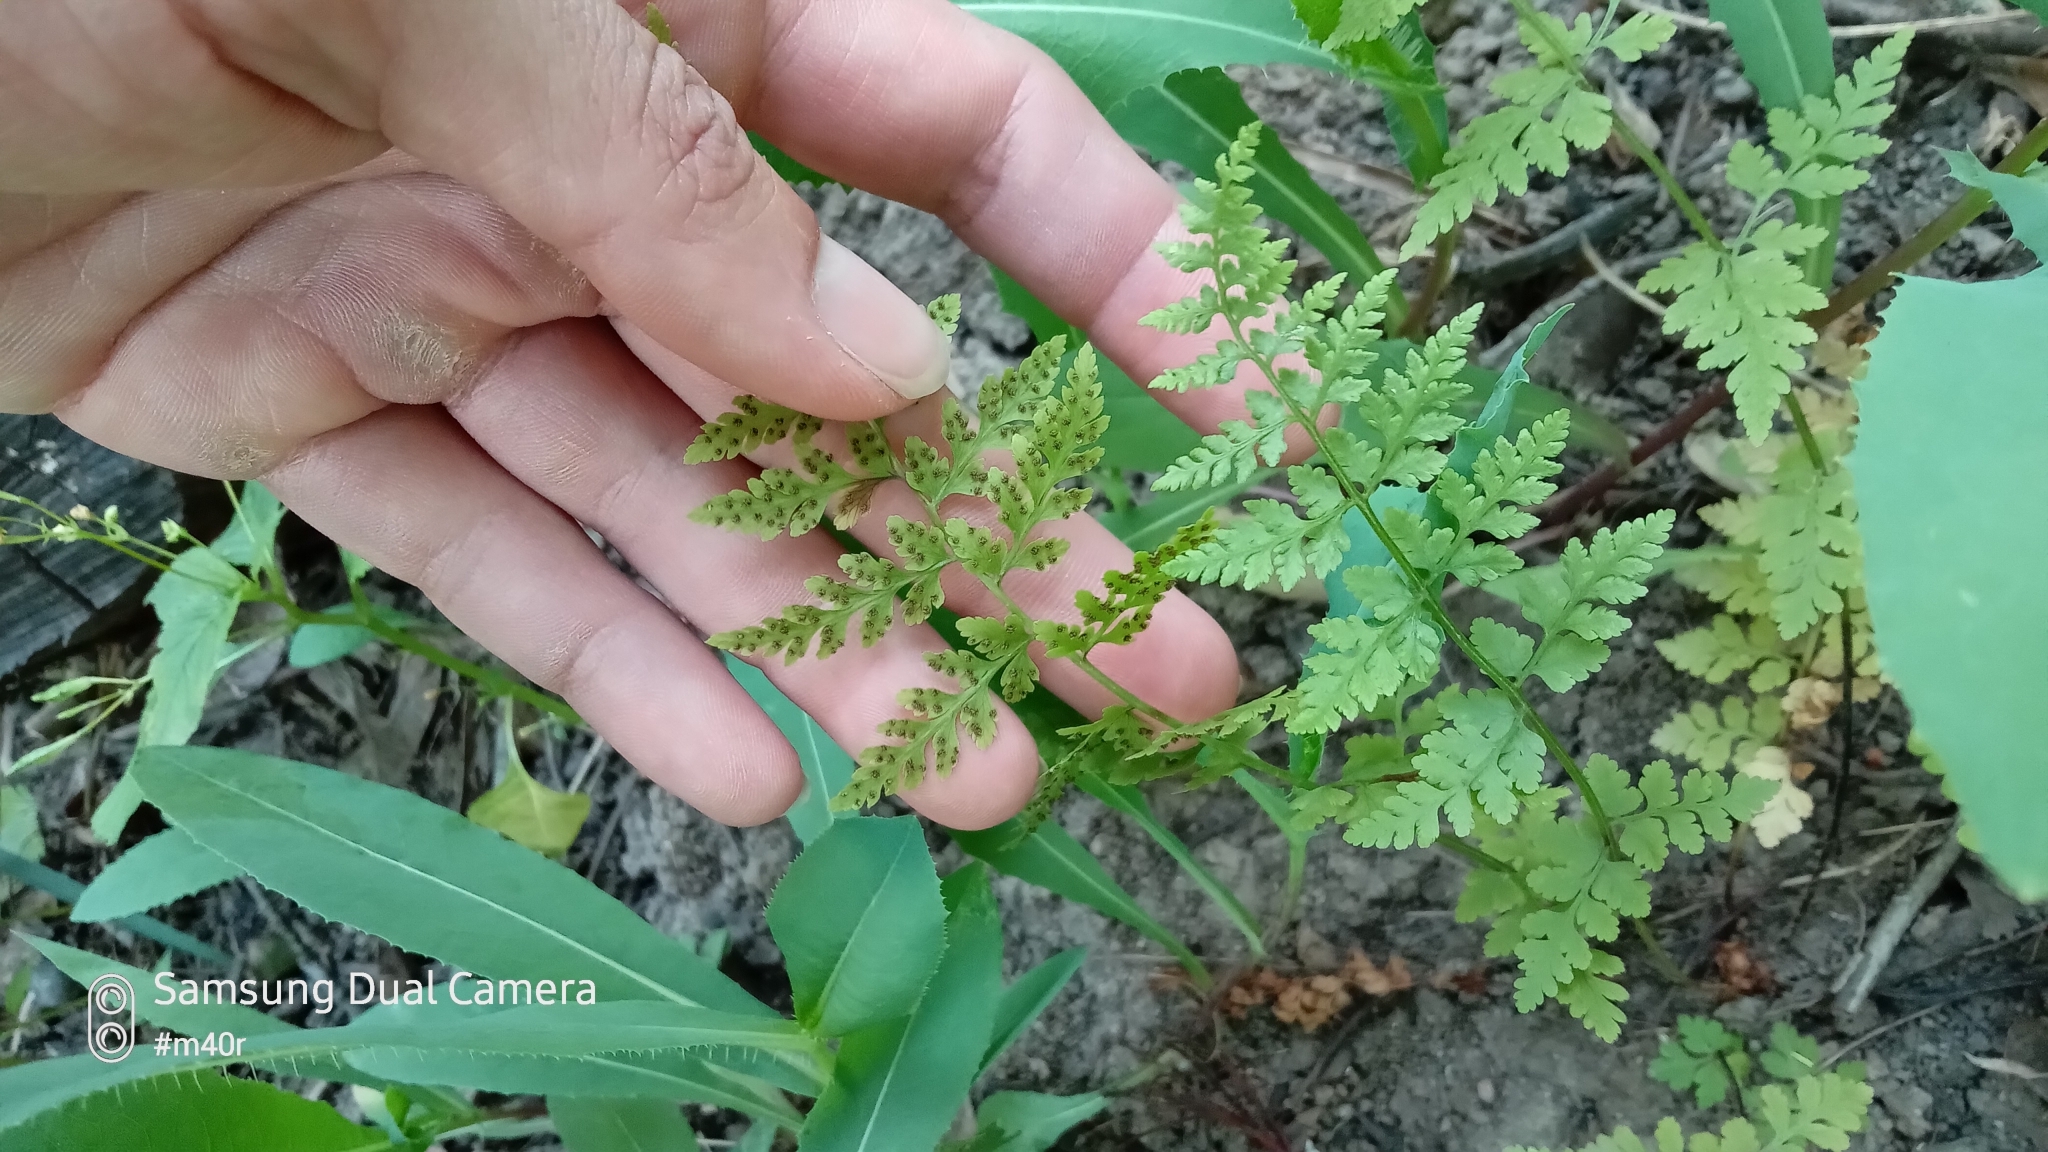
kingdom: Plantae
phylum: Tracheophyta
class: Polypodiopsida
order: Polypodiales
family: Cystopteridaceae
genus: Cystopteris
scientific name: Cystopteris fragilis
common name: Brittle bladder fern
